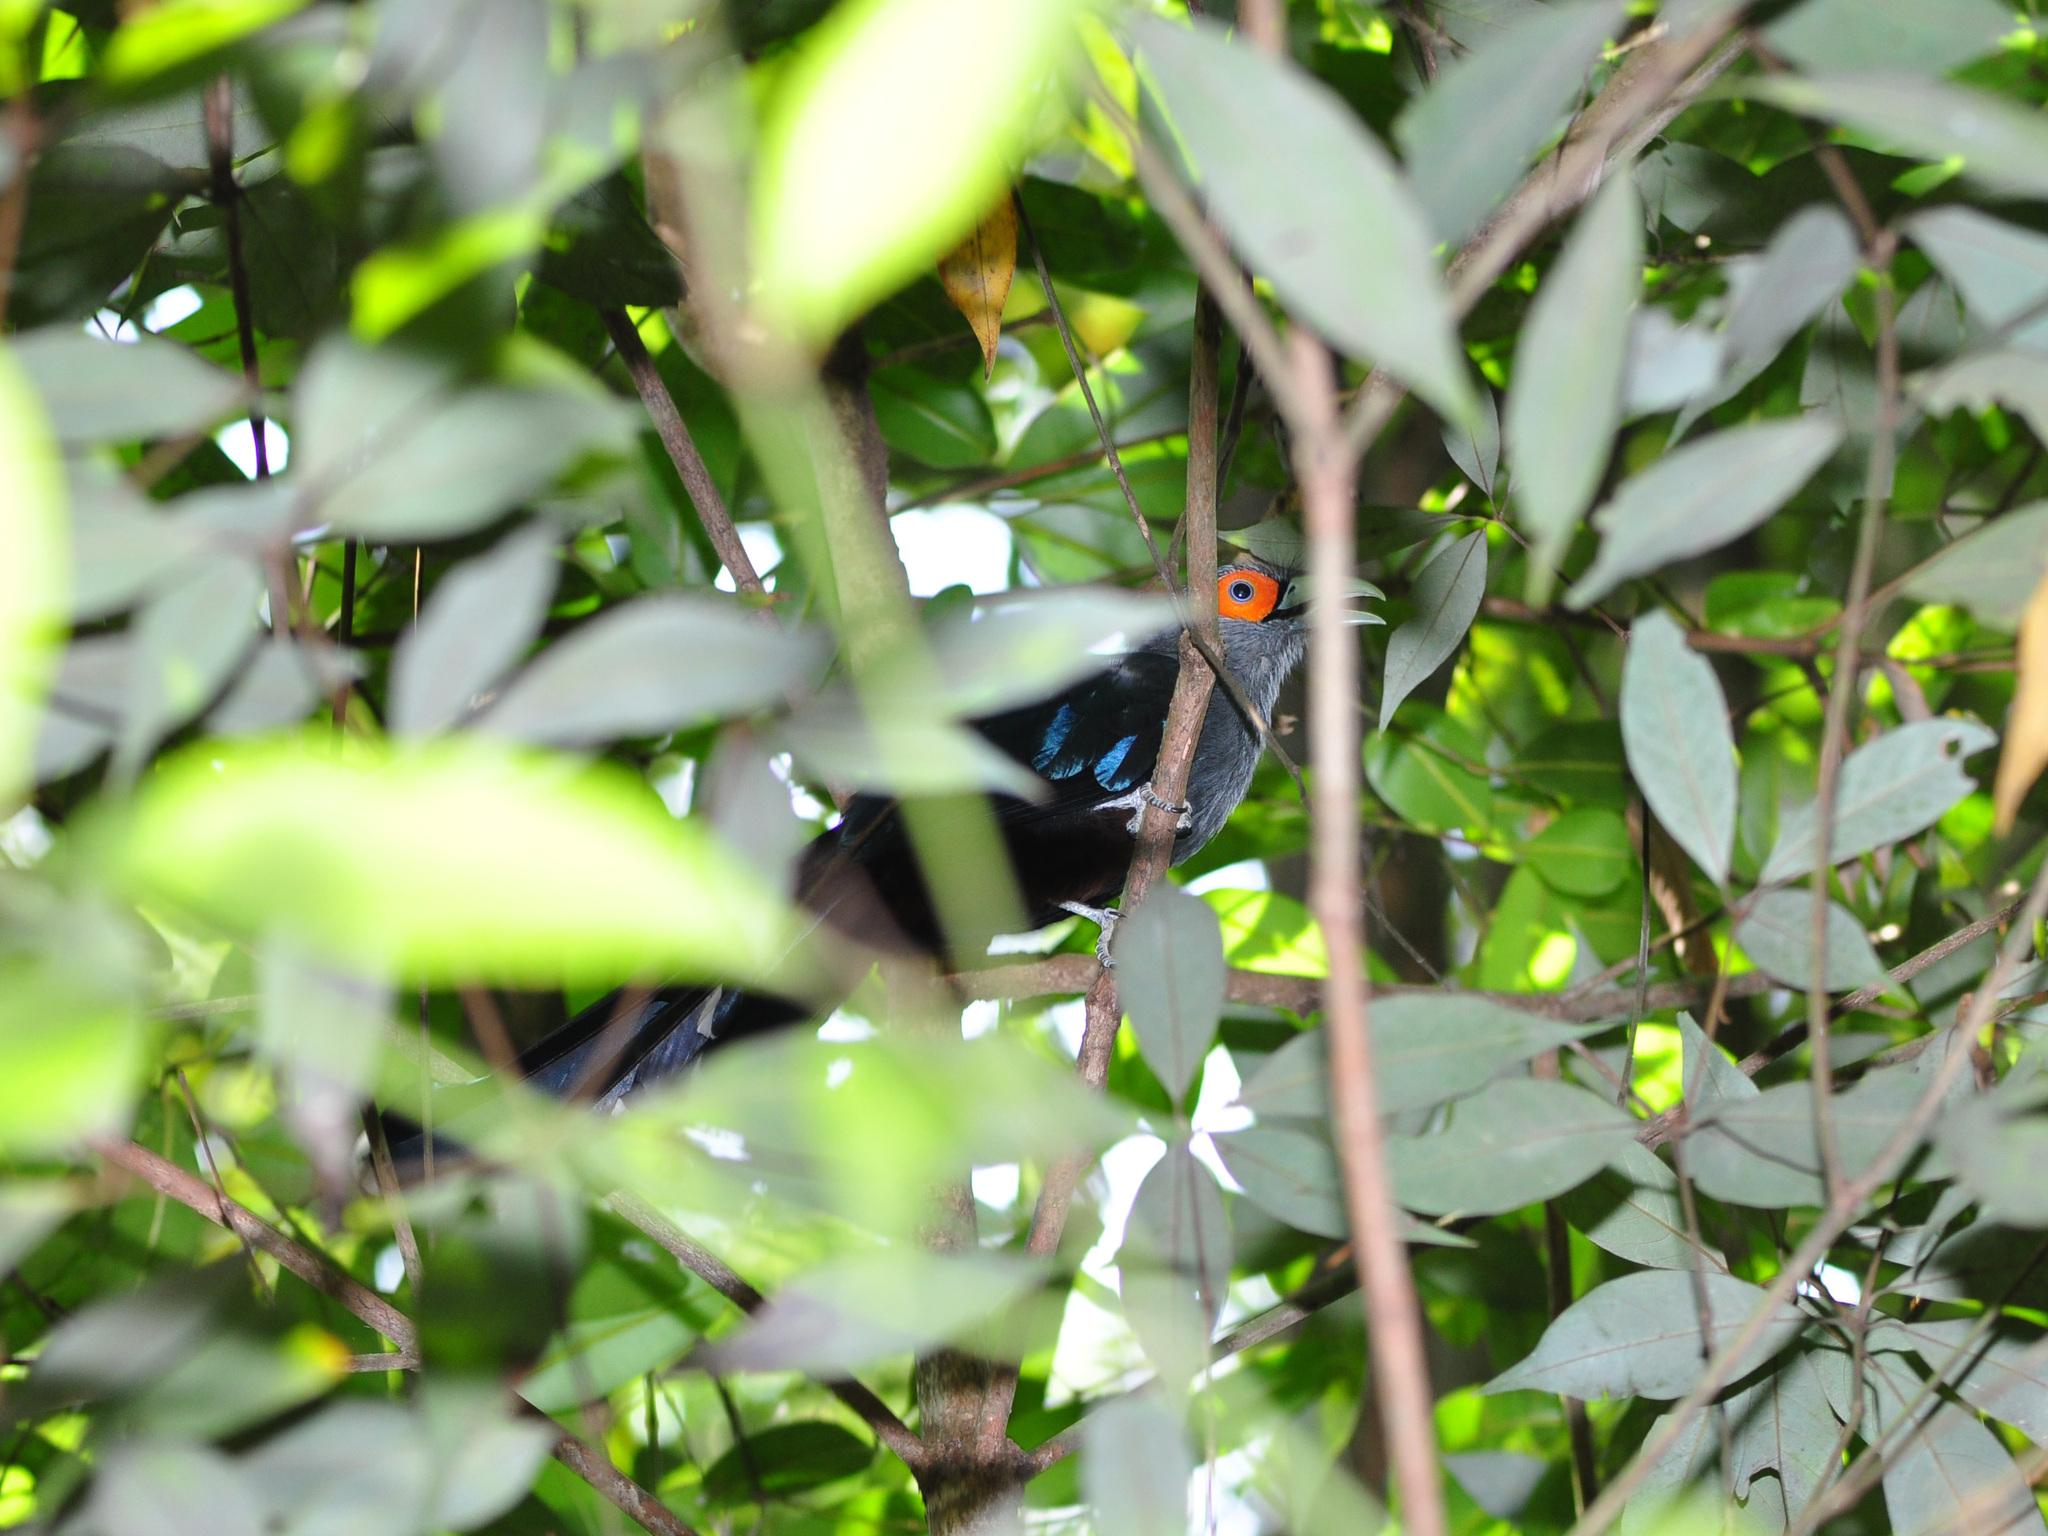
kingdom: Animalia
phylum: Chordata
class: Aves
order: Cuculiformes
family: Cuculidae
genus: Rhopodytes
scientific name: Rhopodytes sumatranus
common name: Rufous-bellied malcoha
